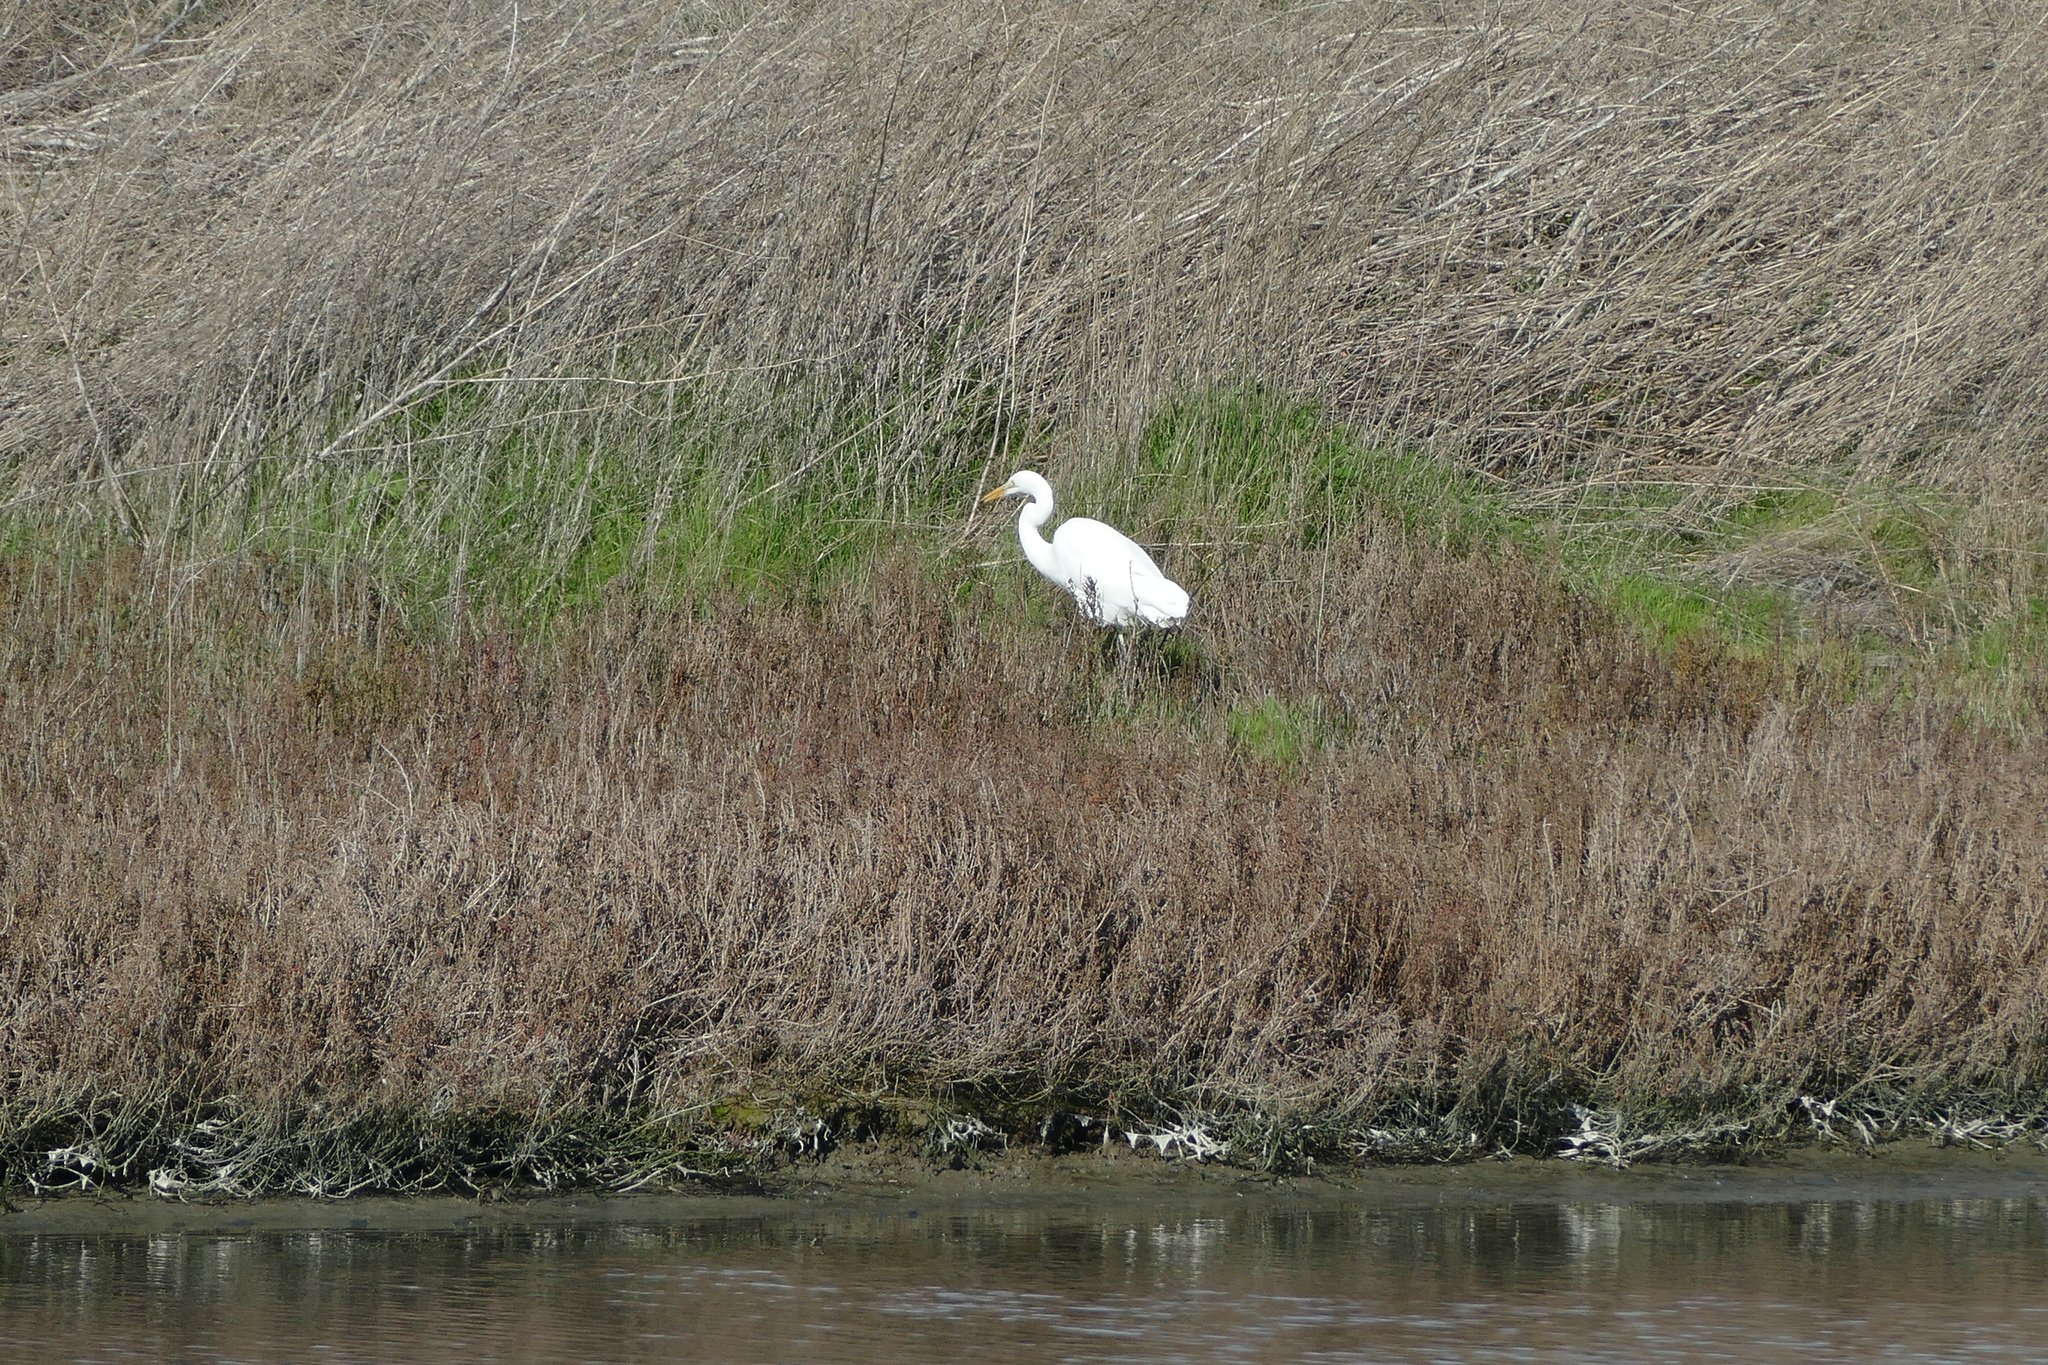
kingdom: Animalia
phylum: Chordata
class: Aves
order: Pelecaniformes
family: Ardeidae
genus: Ardea
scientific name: Ardea alba
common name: Great egret
